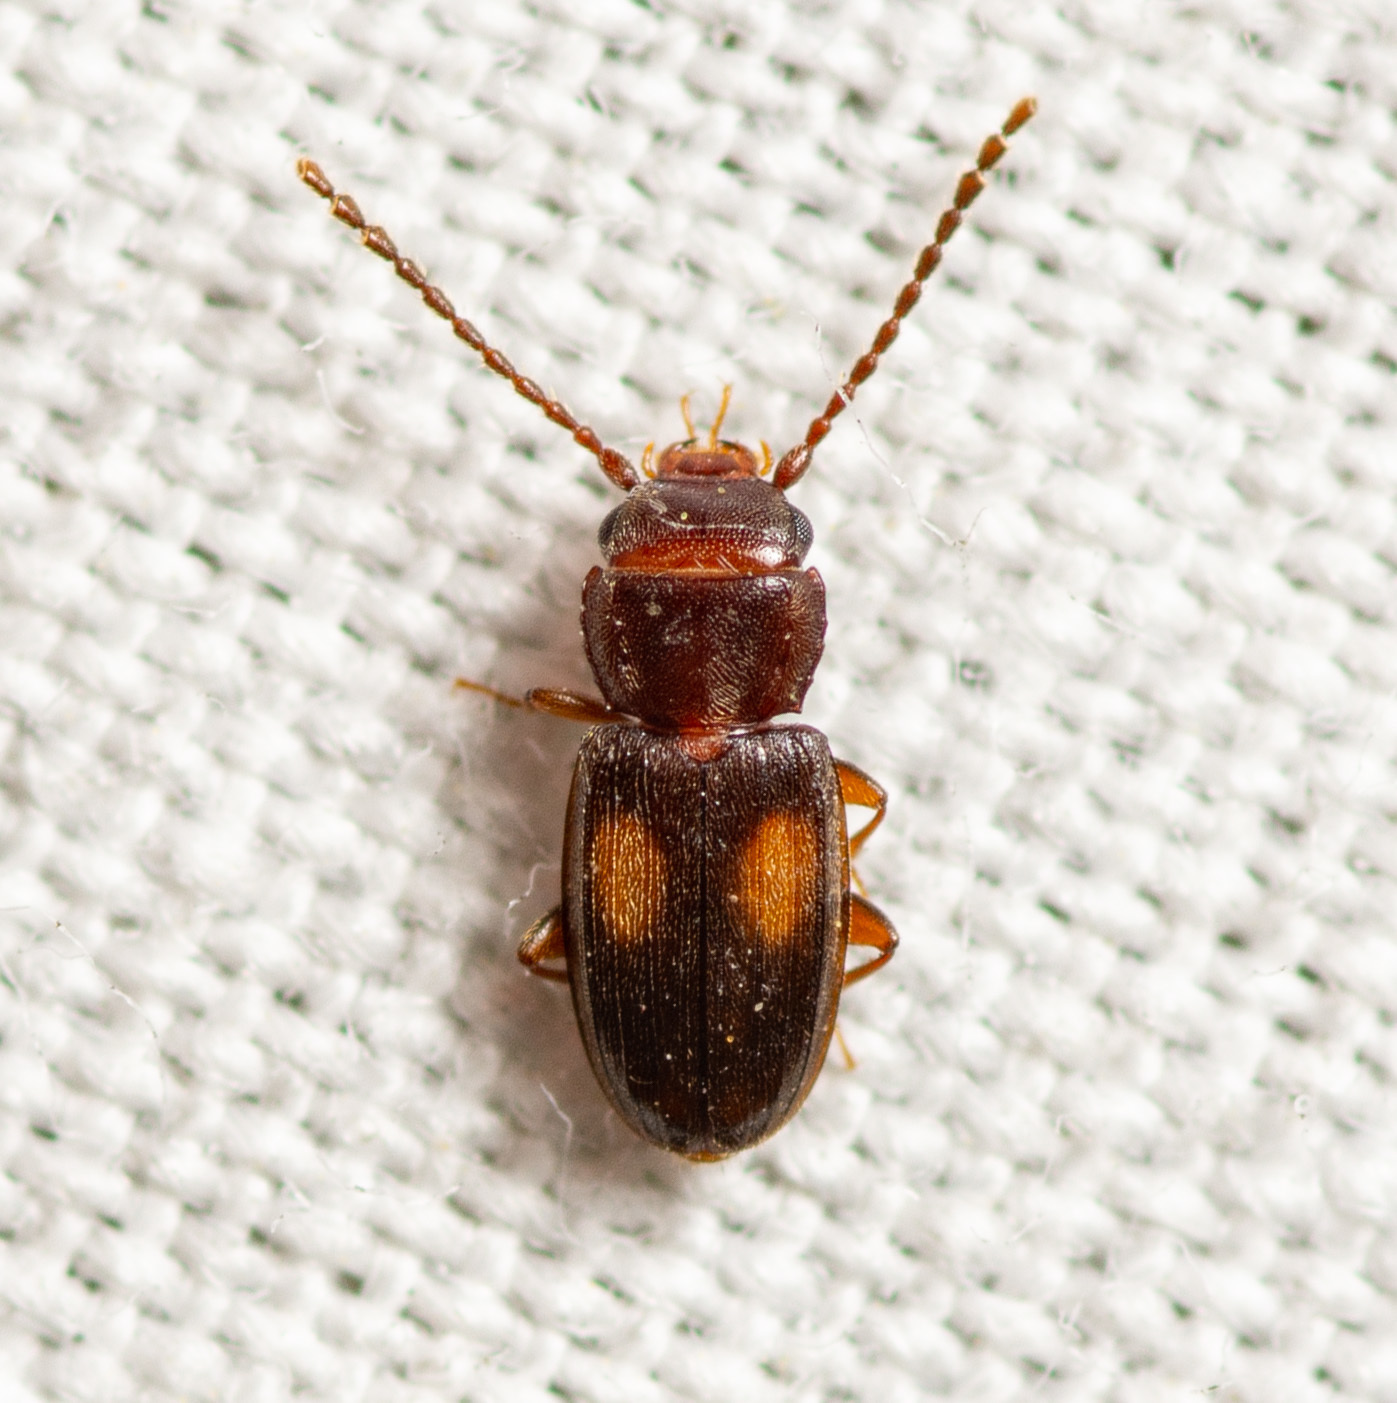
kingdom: Animalia
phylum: Arthropoda
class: Insecta
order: Coleoptera
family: Laemophloeidae
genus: Laemophloeus
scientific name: Laemophloeus biguttatus
